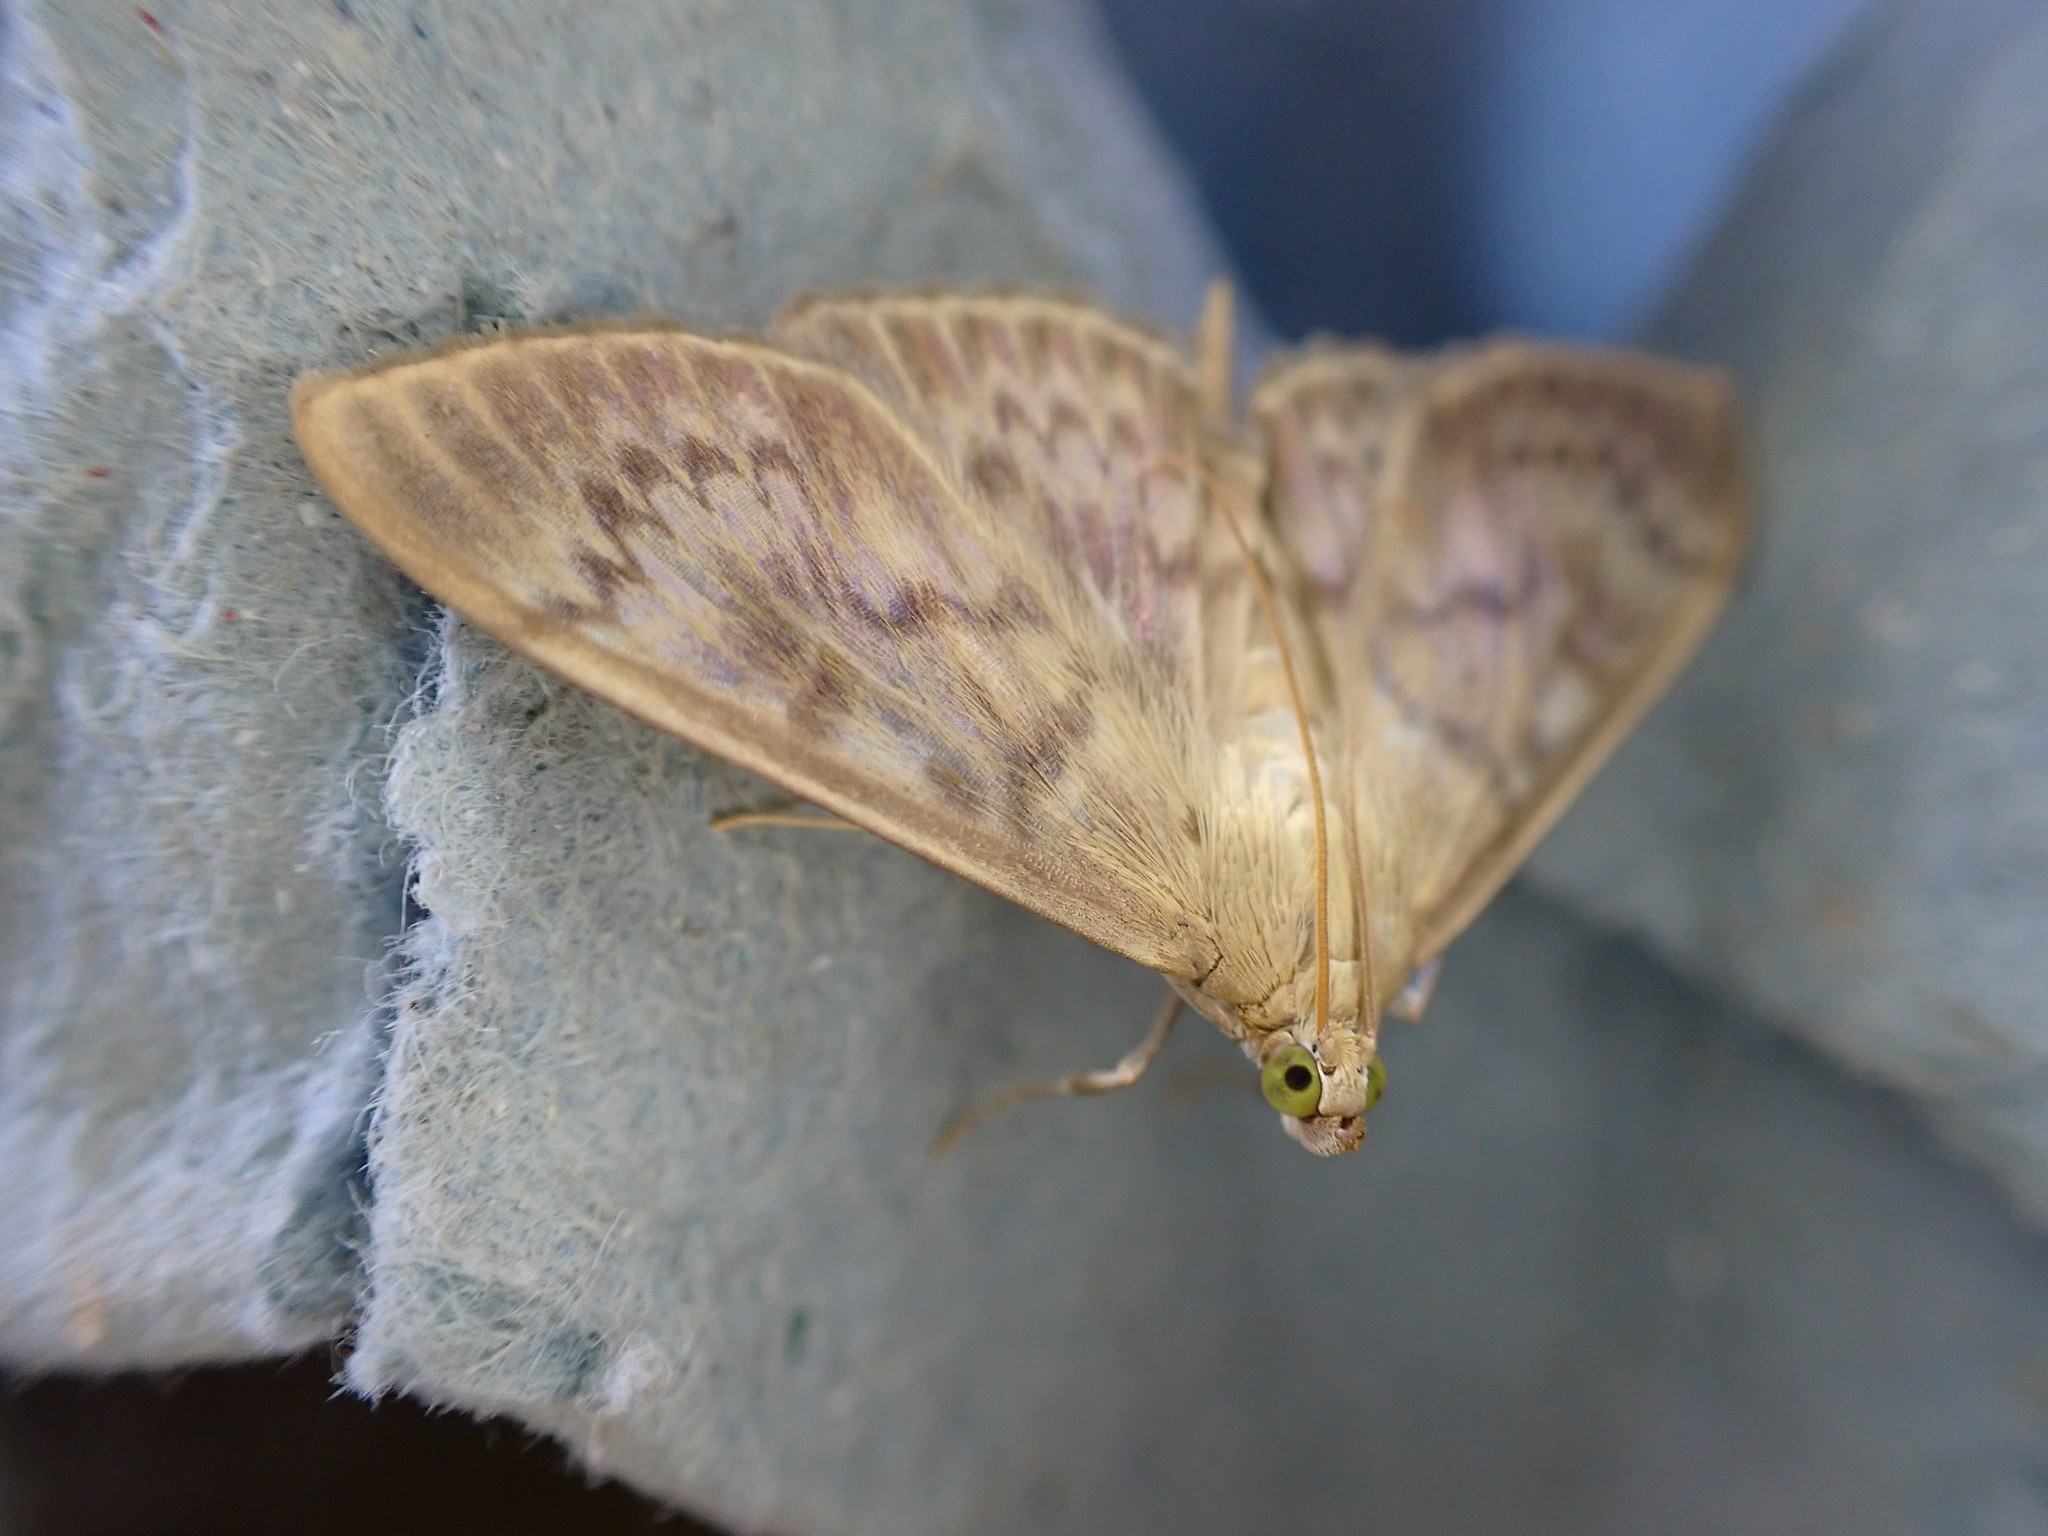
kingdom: Animalia
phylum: Arthropoda
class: Insecta
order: Lepidoptera
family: Crambidae
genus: Patania
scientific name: Patania ruralis
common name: Mother of pearl
